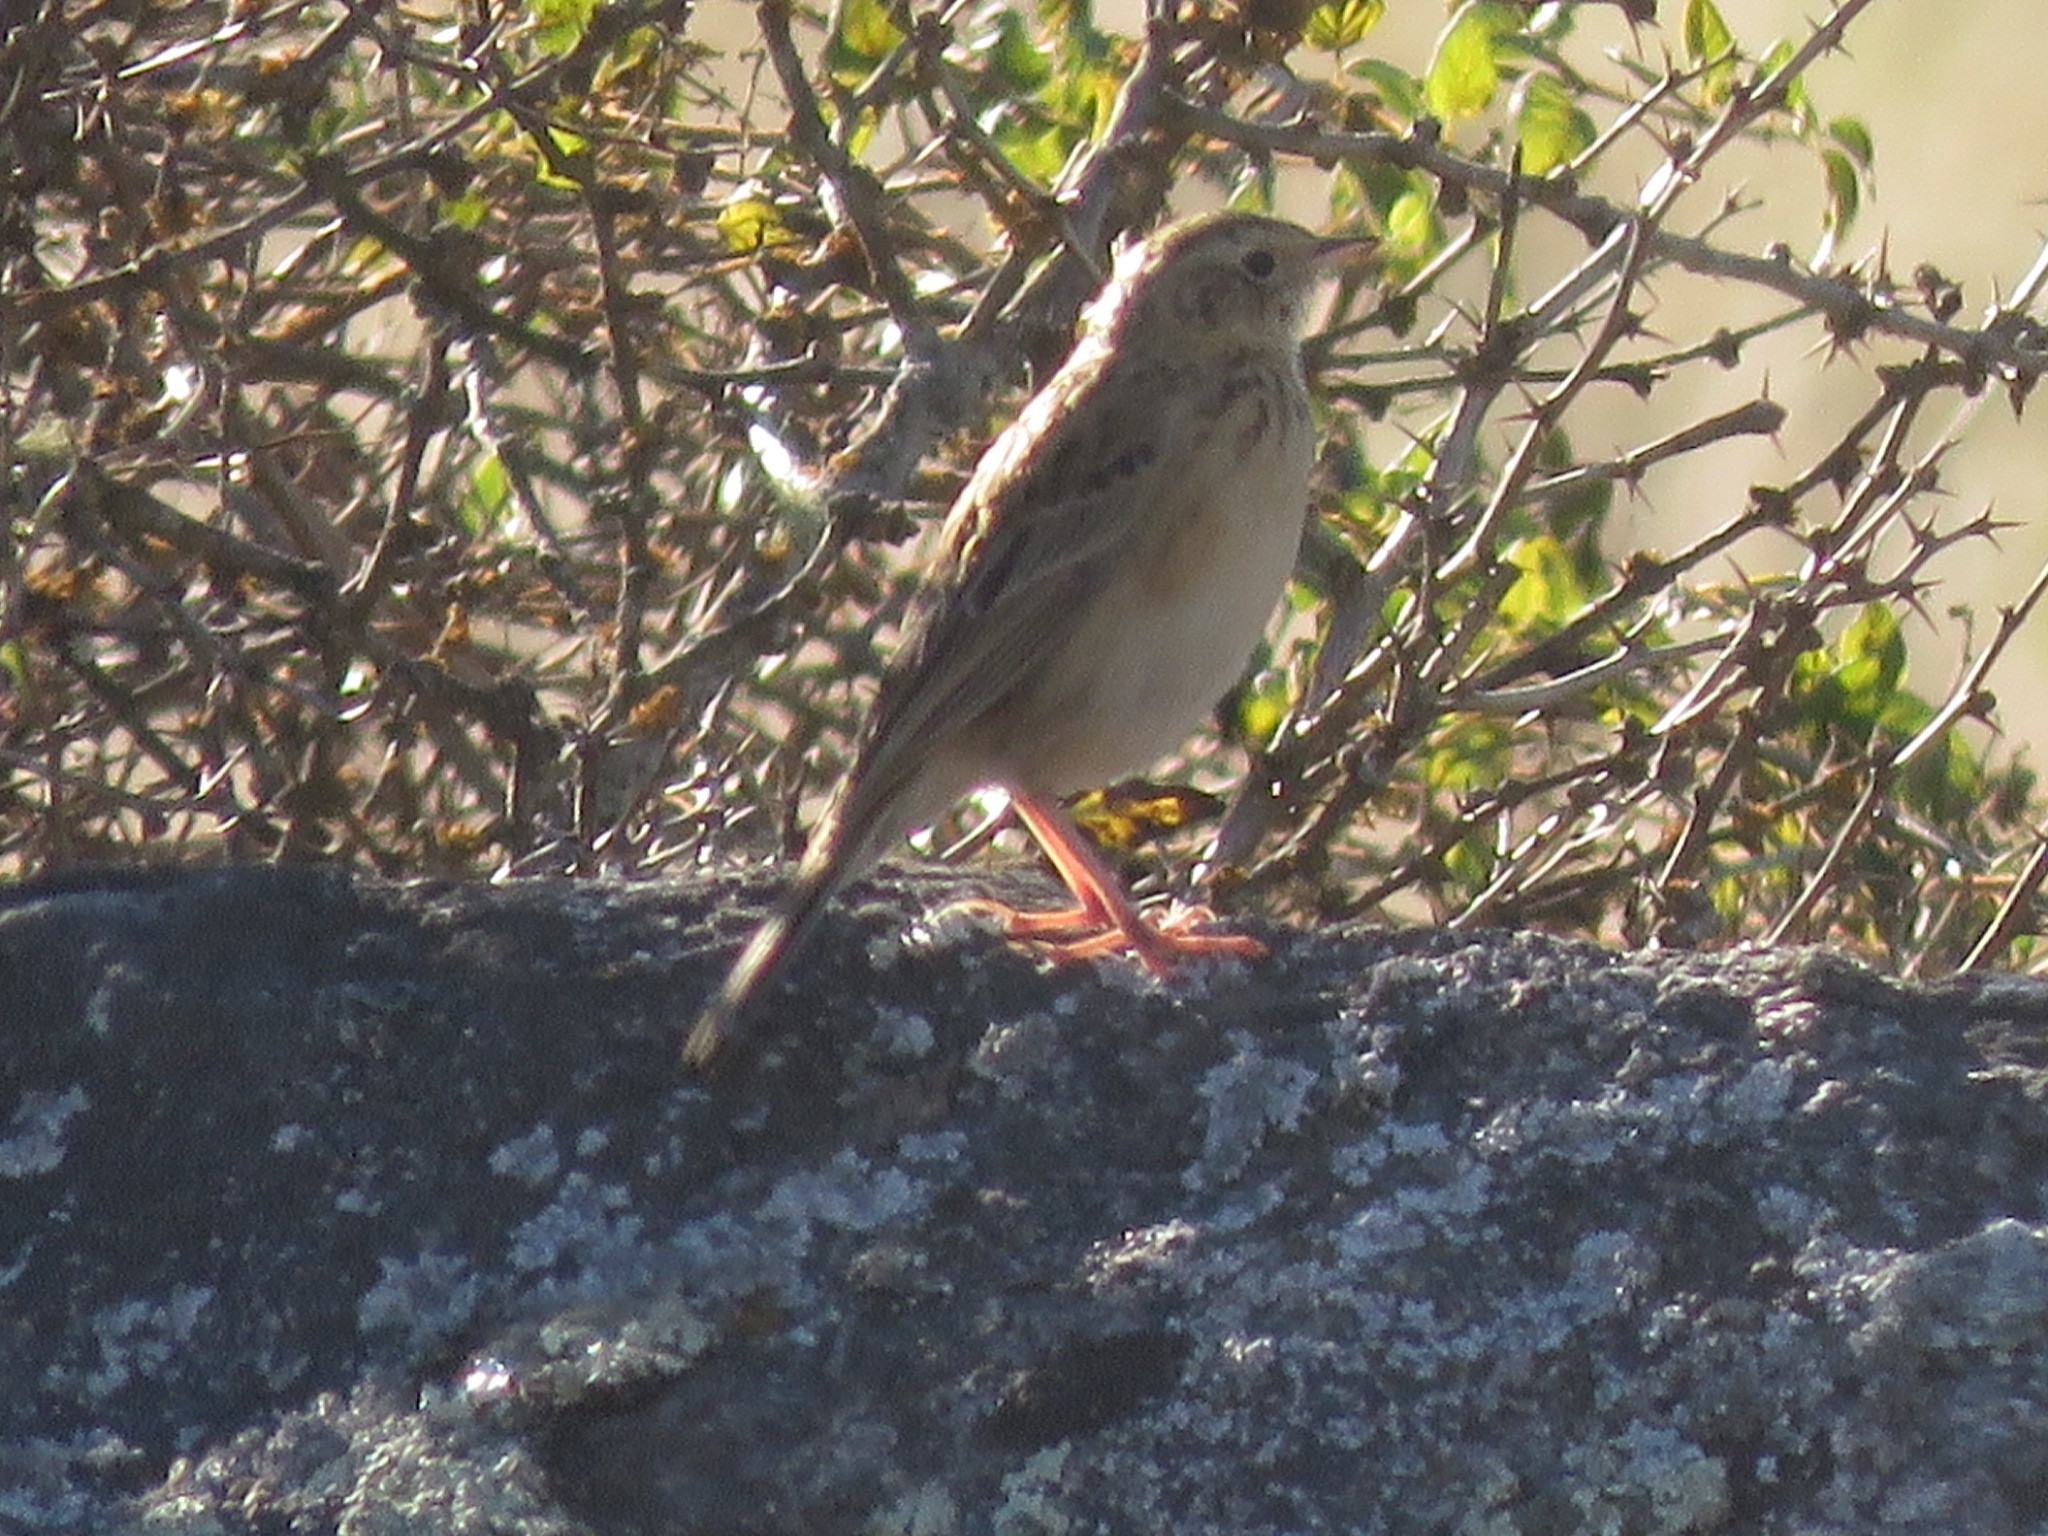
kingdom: Animalia
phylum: Chordata
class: Aves
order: Passeriformes
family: Motacillidae
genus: Anthus
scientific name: Anthus hellmayri
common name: Hellmayr's pipit
